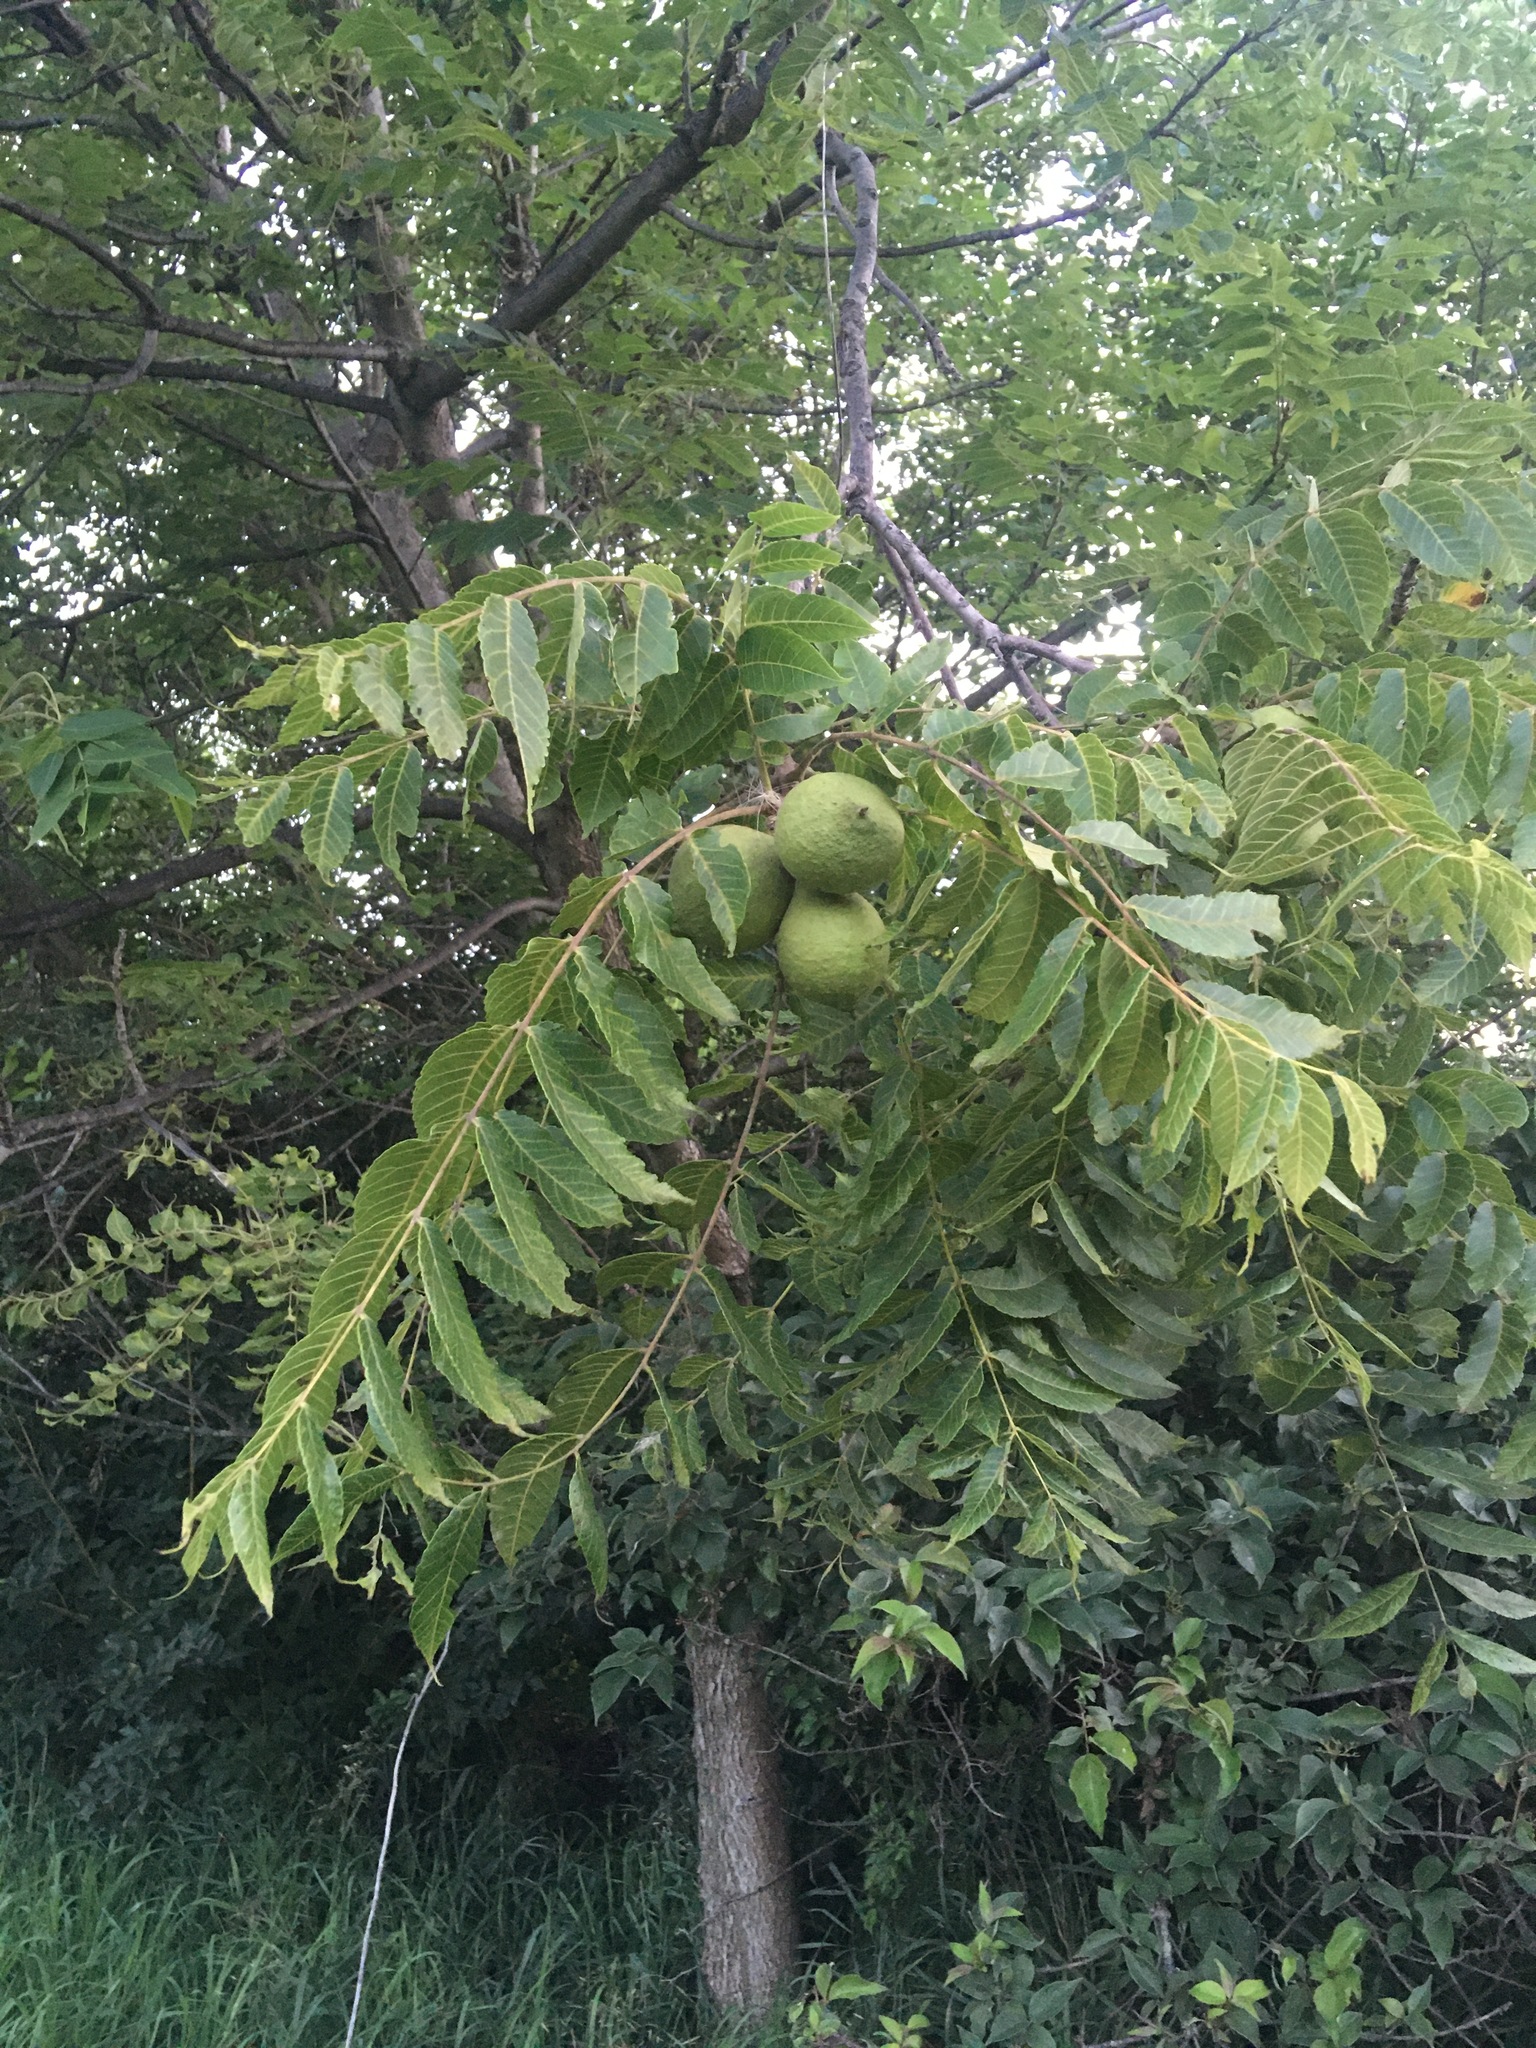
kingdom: Plantae
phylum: Tracheophyta
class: Magnoliopsida
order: Fagales
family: Juglandaceae
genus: Juglans
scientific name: Juglans nigra
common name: Black walnut
